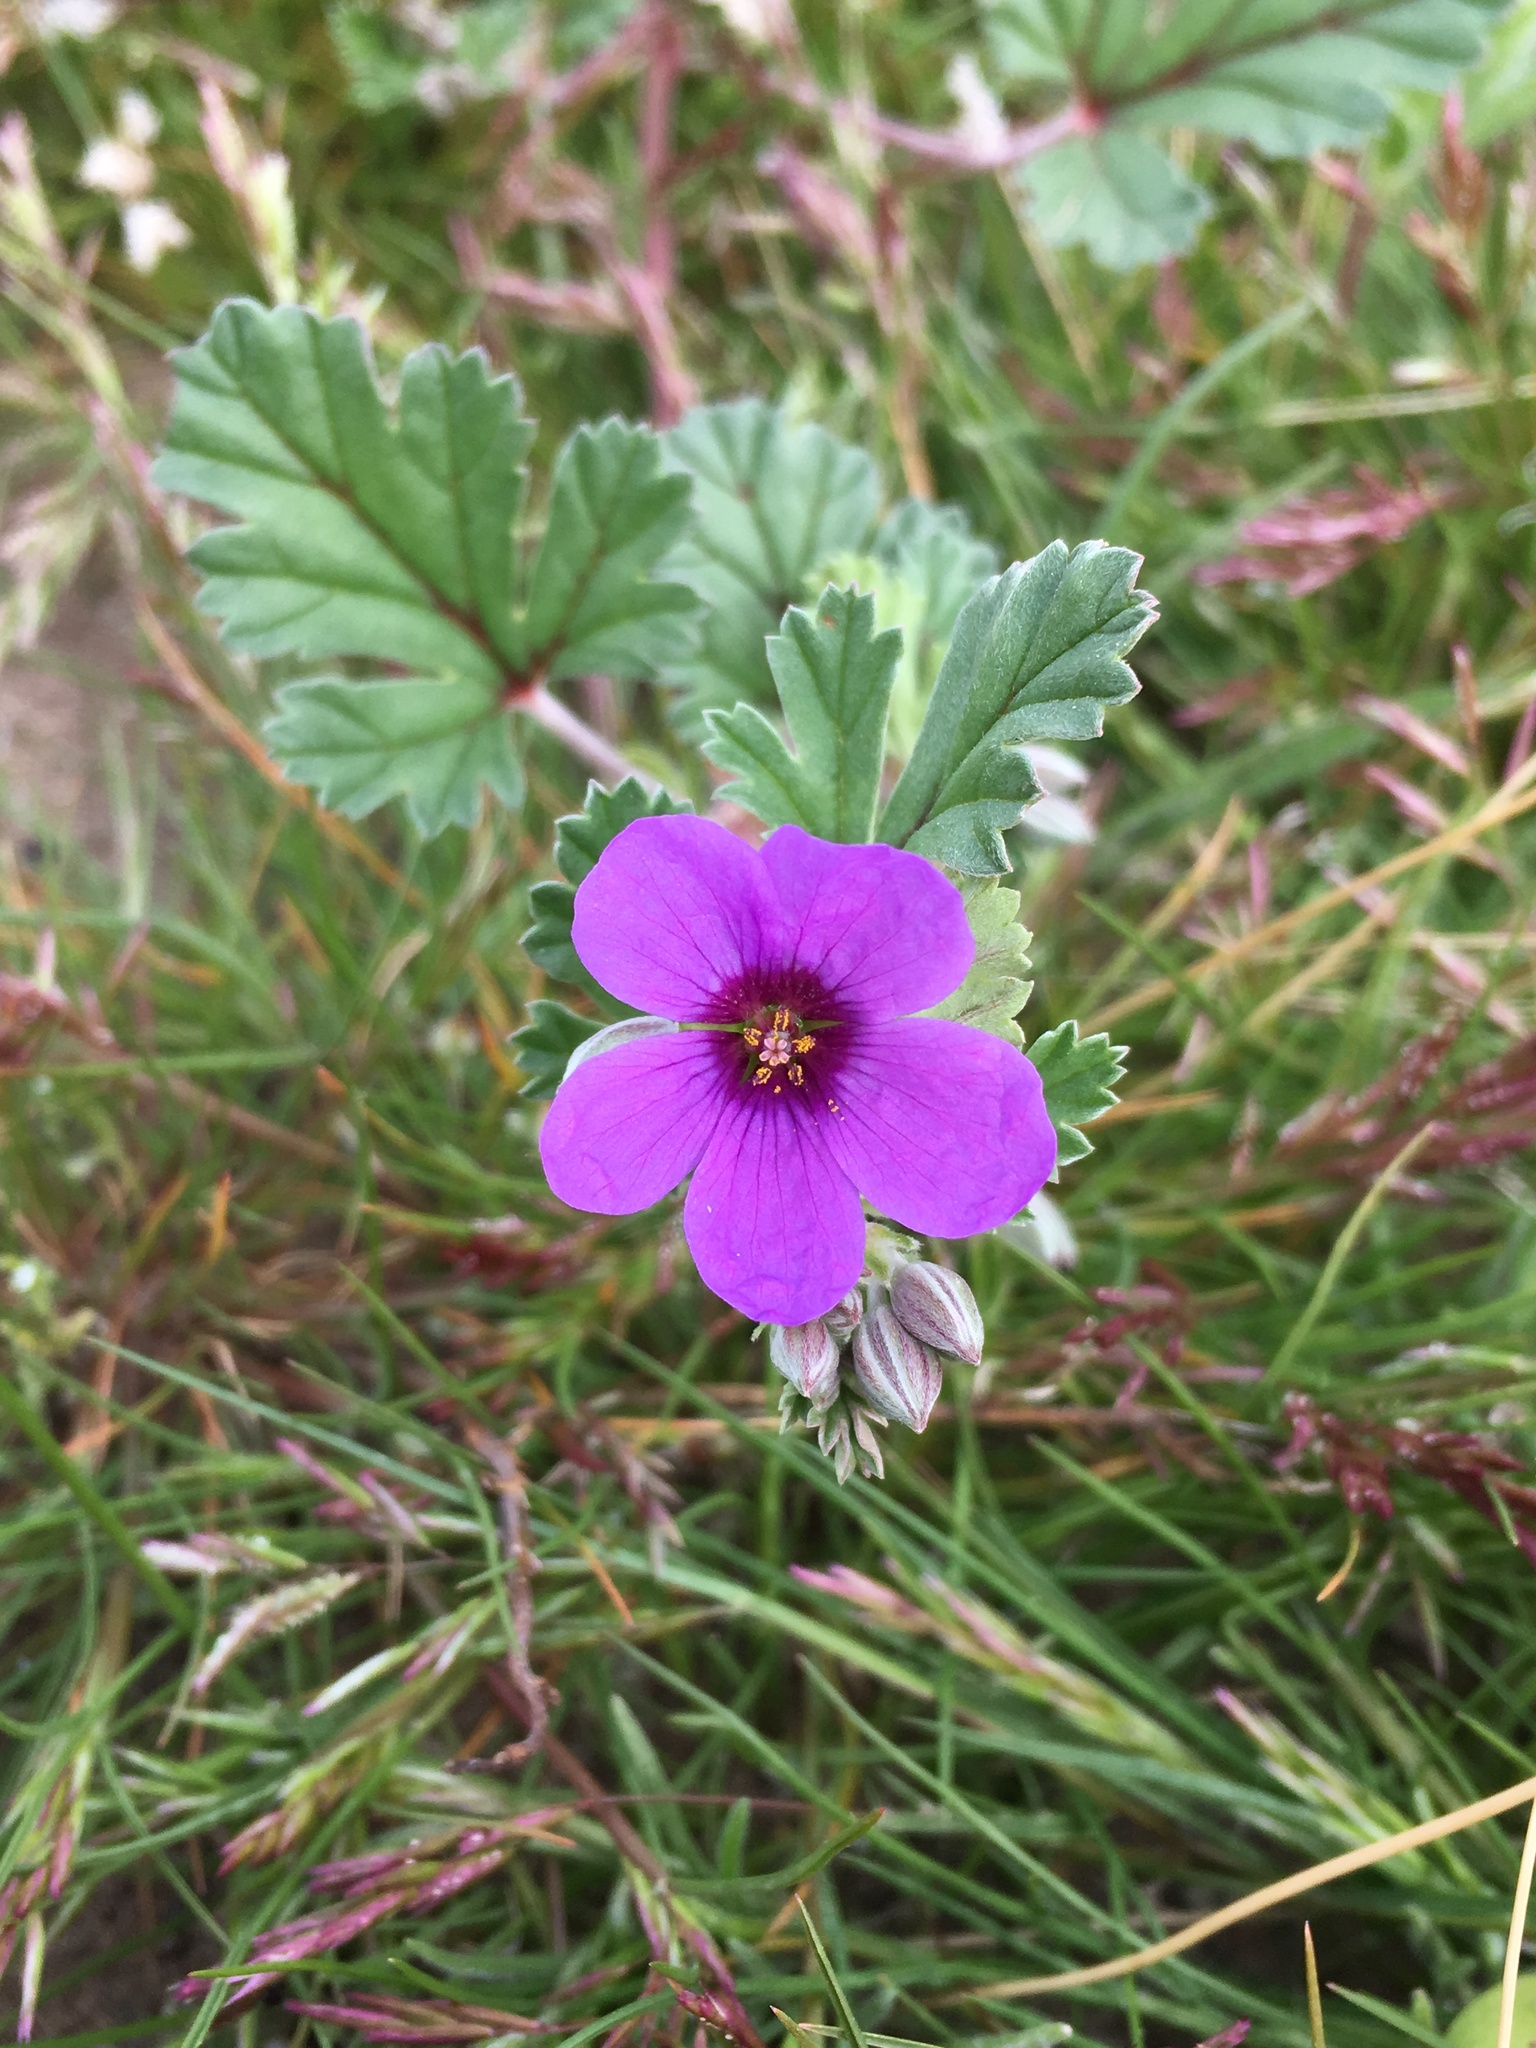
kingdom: Plantae
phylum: Tracheophyta
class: Magnoliopsida
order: Geraniales
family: Geraniaceae
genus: Erodium
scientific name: Erodium texanum
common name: Texas stork's-bill
